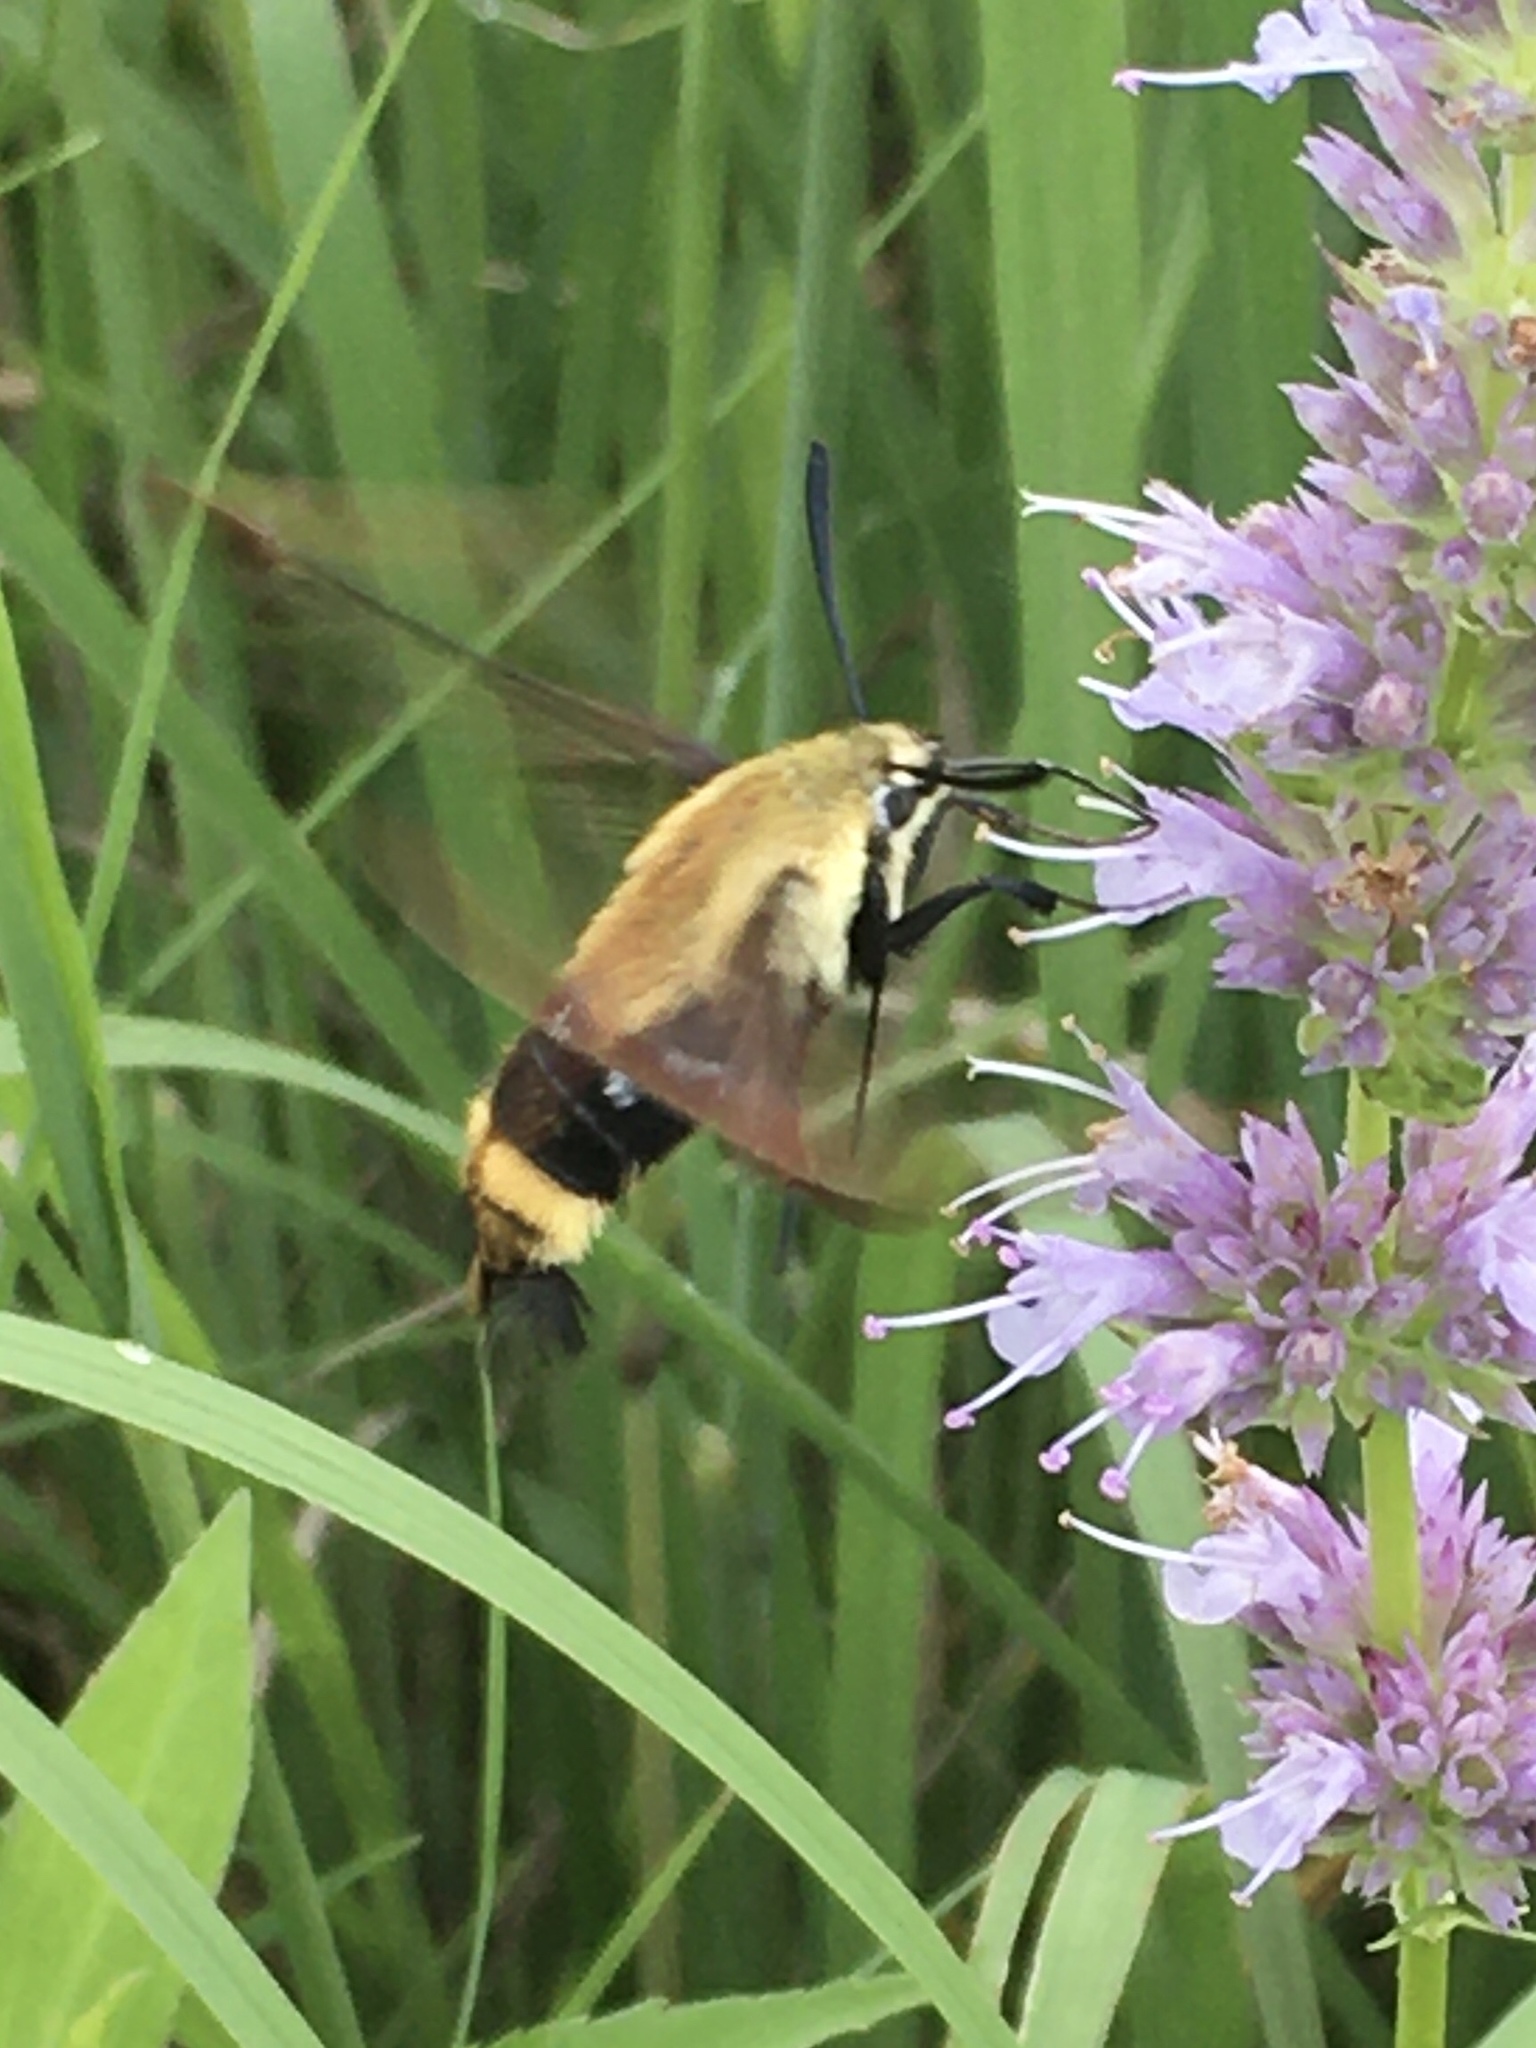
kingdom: Animalia
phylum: Arthropoda
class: Insecta
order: Lepidoptera
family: Sphingidae
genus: Hemaris
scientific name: Hemaris diffinis
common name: Bumblebee moth
